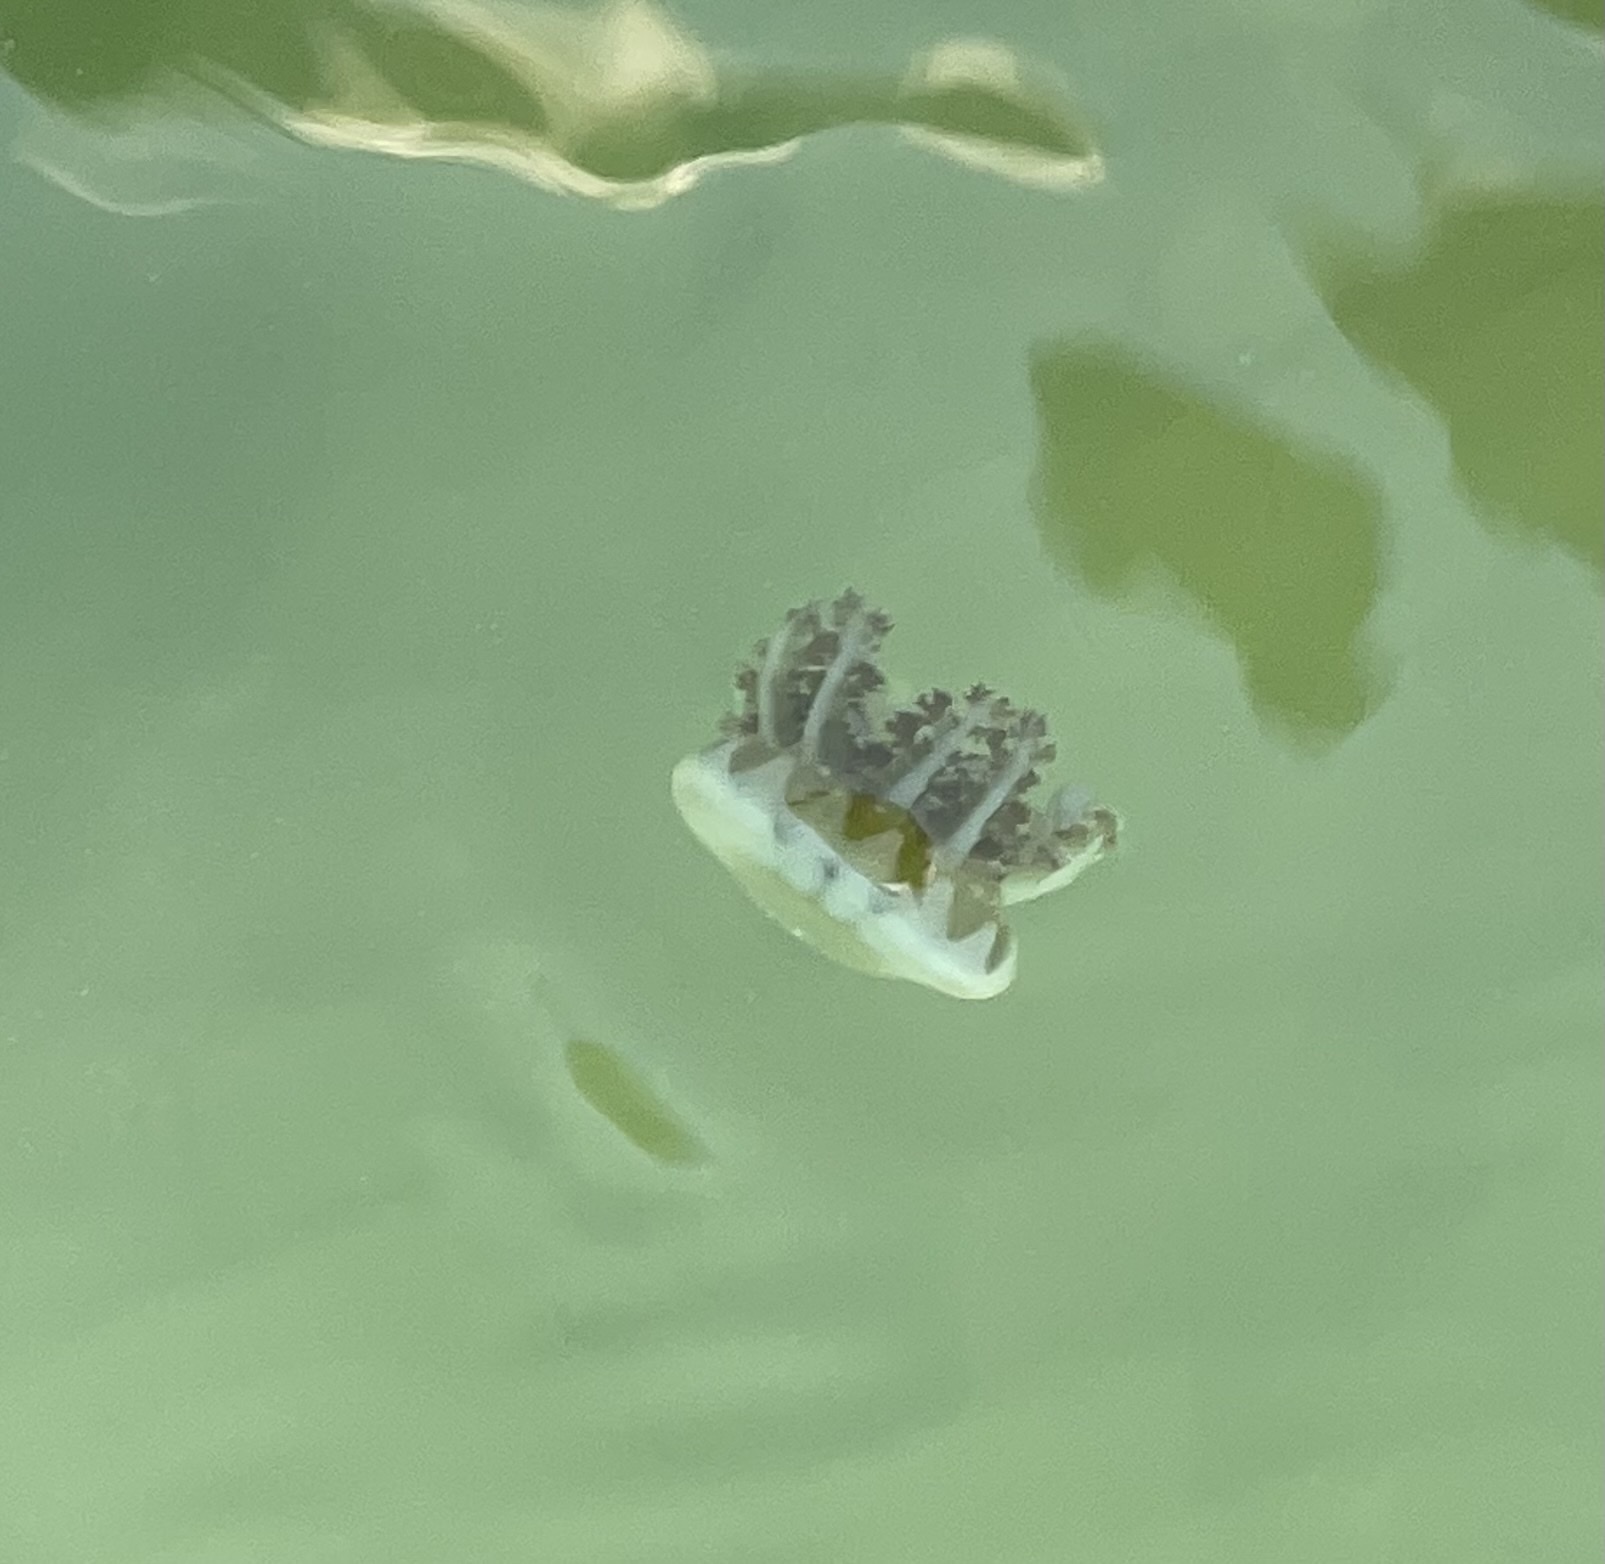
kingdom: Animalia
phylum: Cnidaria
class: Scyphozoa
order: Rhizostomeae
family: Cassiopeidae
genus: Cassiopea
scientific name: Cassiopea andromeda
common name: Upside-down jellyfish
